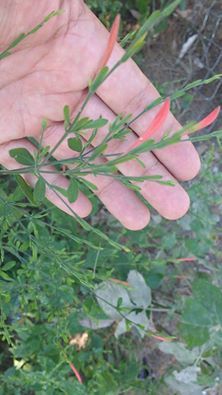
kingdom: Plantae
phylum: Tracheophyta
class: Magnoliopsida
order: Lamiales
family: Acanthaceae
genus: Dicliptera
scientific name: Dicliptera sexangularis
